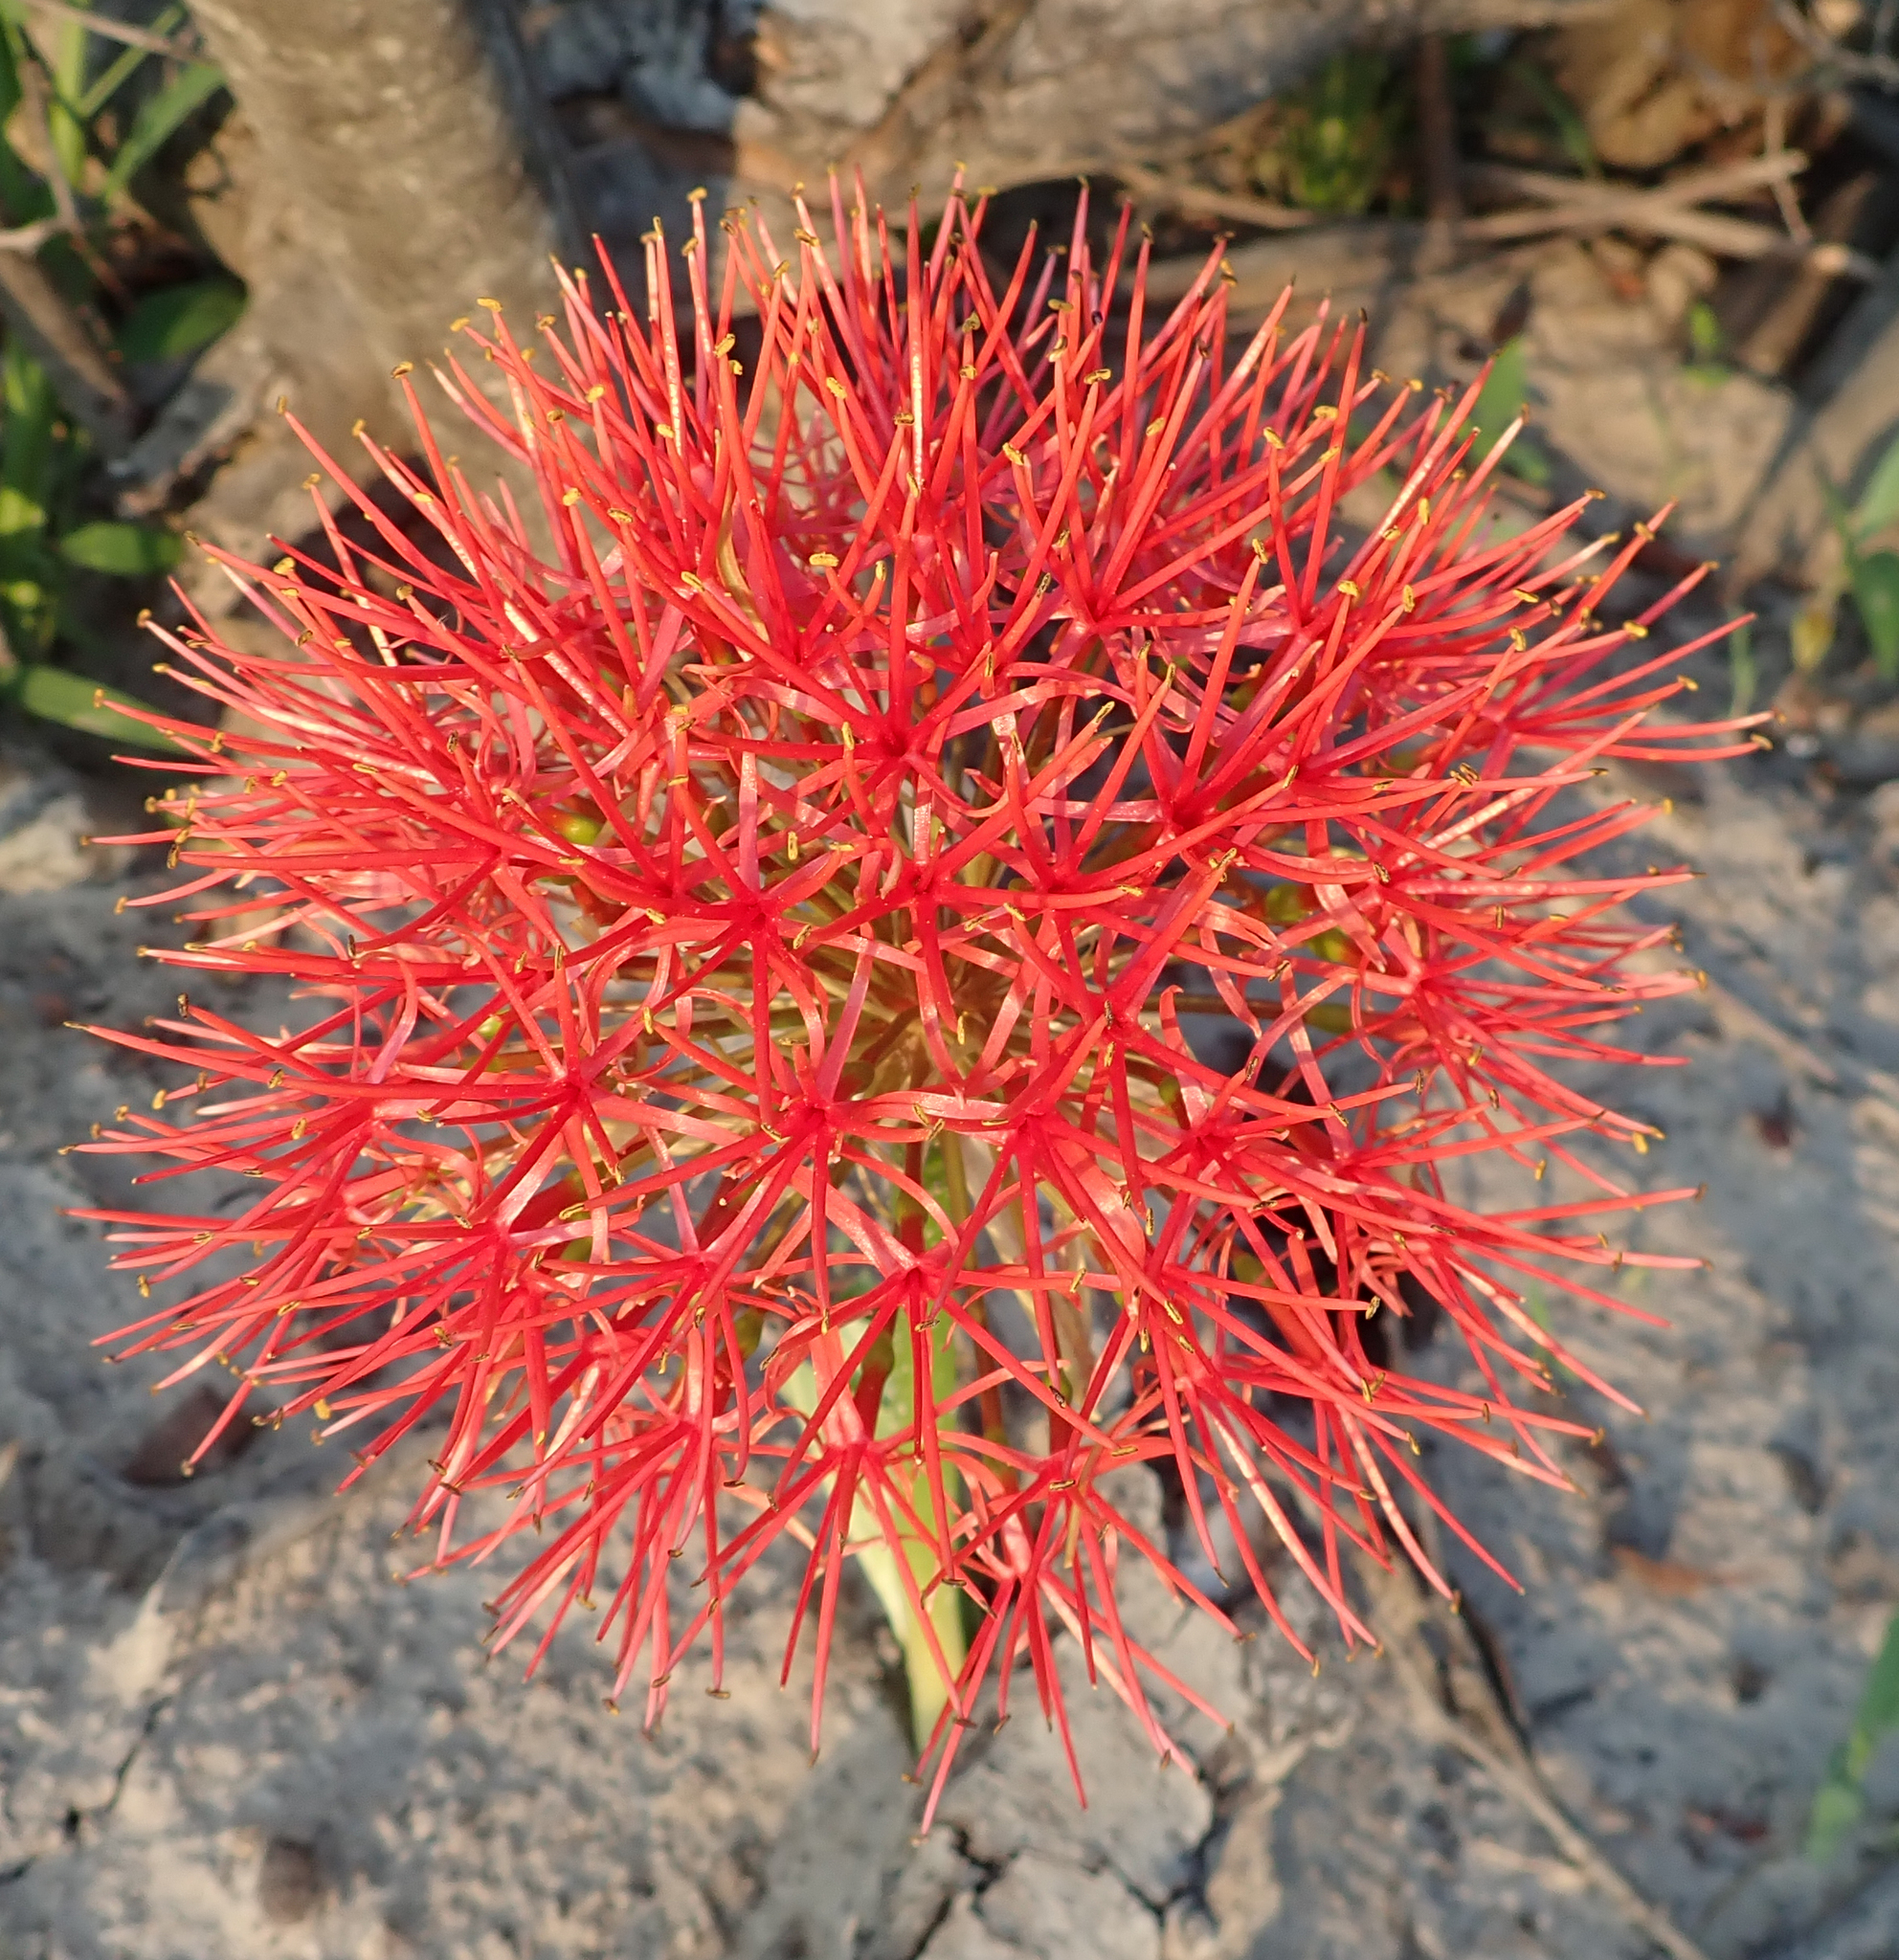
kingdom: Plantae
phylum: Tracheophyta
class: Liliopsida
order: Asparagales
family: Amaryllidaceae
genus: Scadoxus
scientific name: Scadoxus multiflorus
